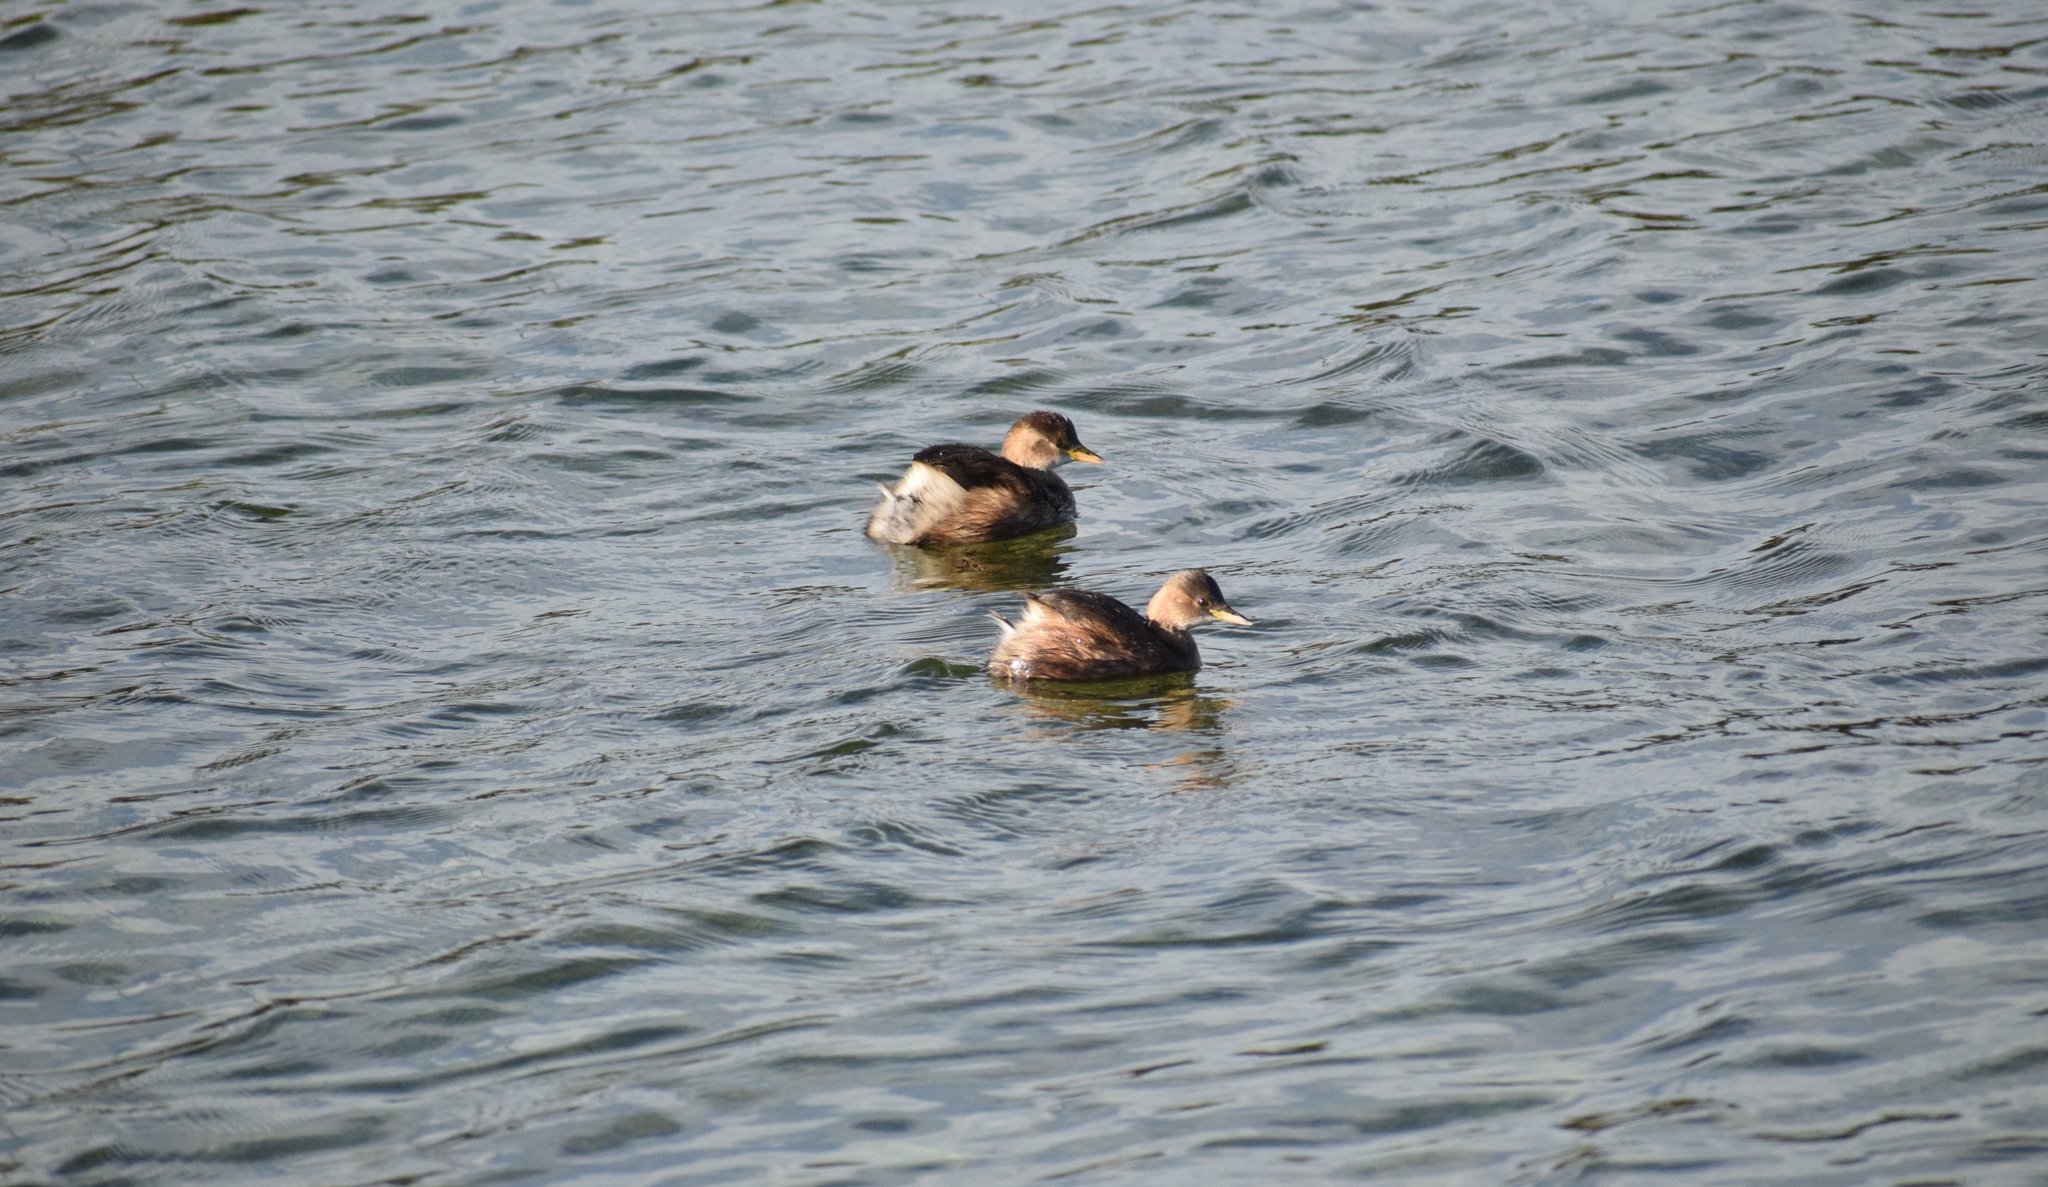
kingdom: Animalia
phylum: Chordata
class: Aves
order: Podicipediformes
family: Podicipedidae
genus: Tachybaptus
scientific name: Tachybaptus ruficollis
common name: Little grebe
